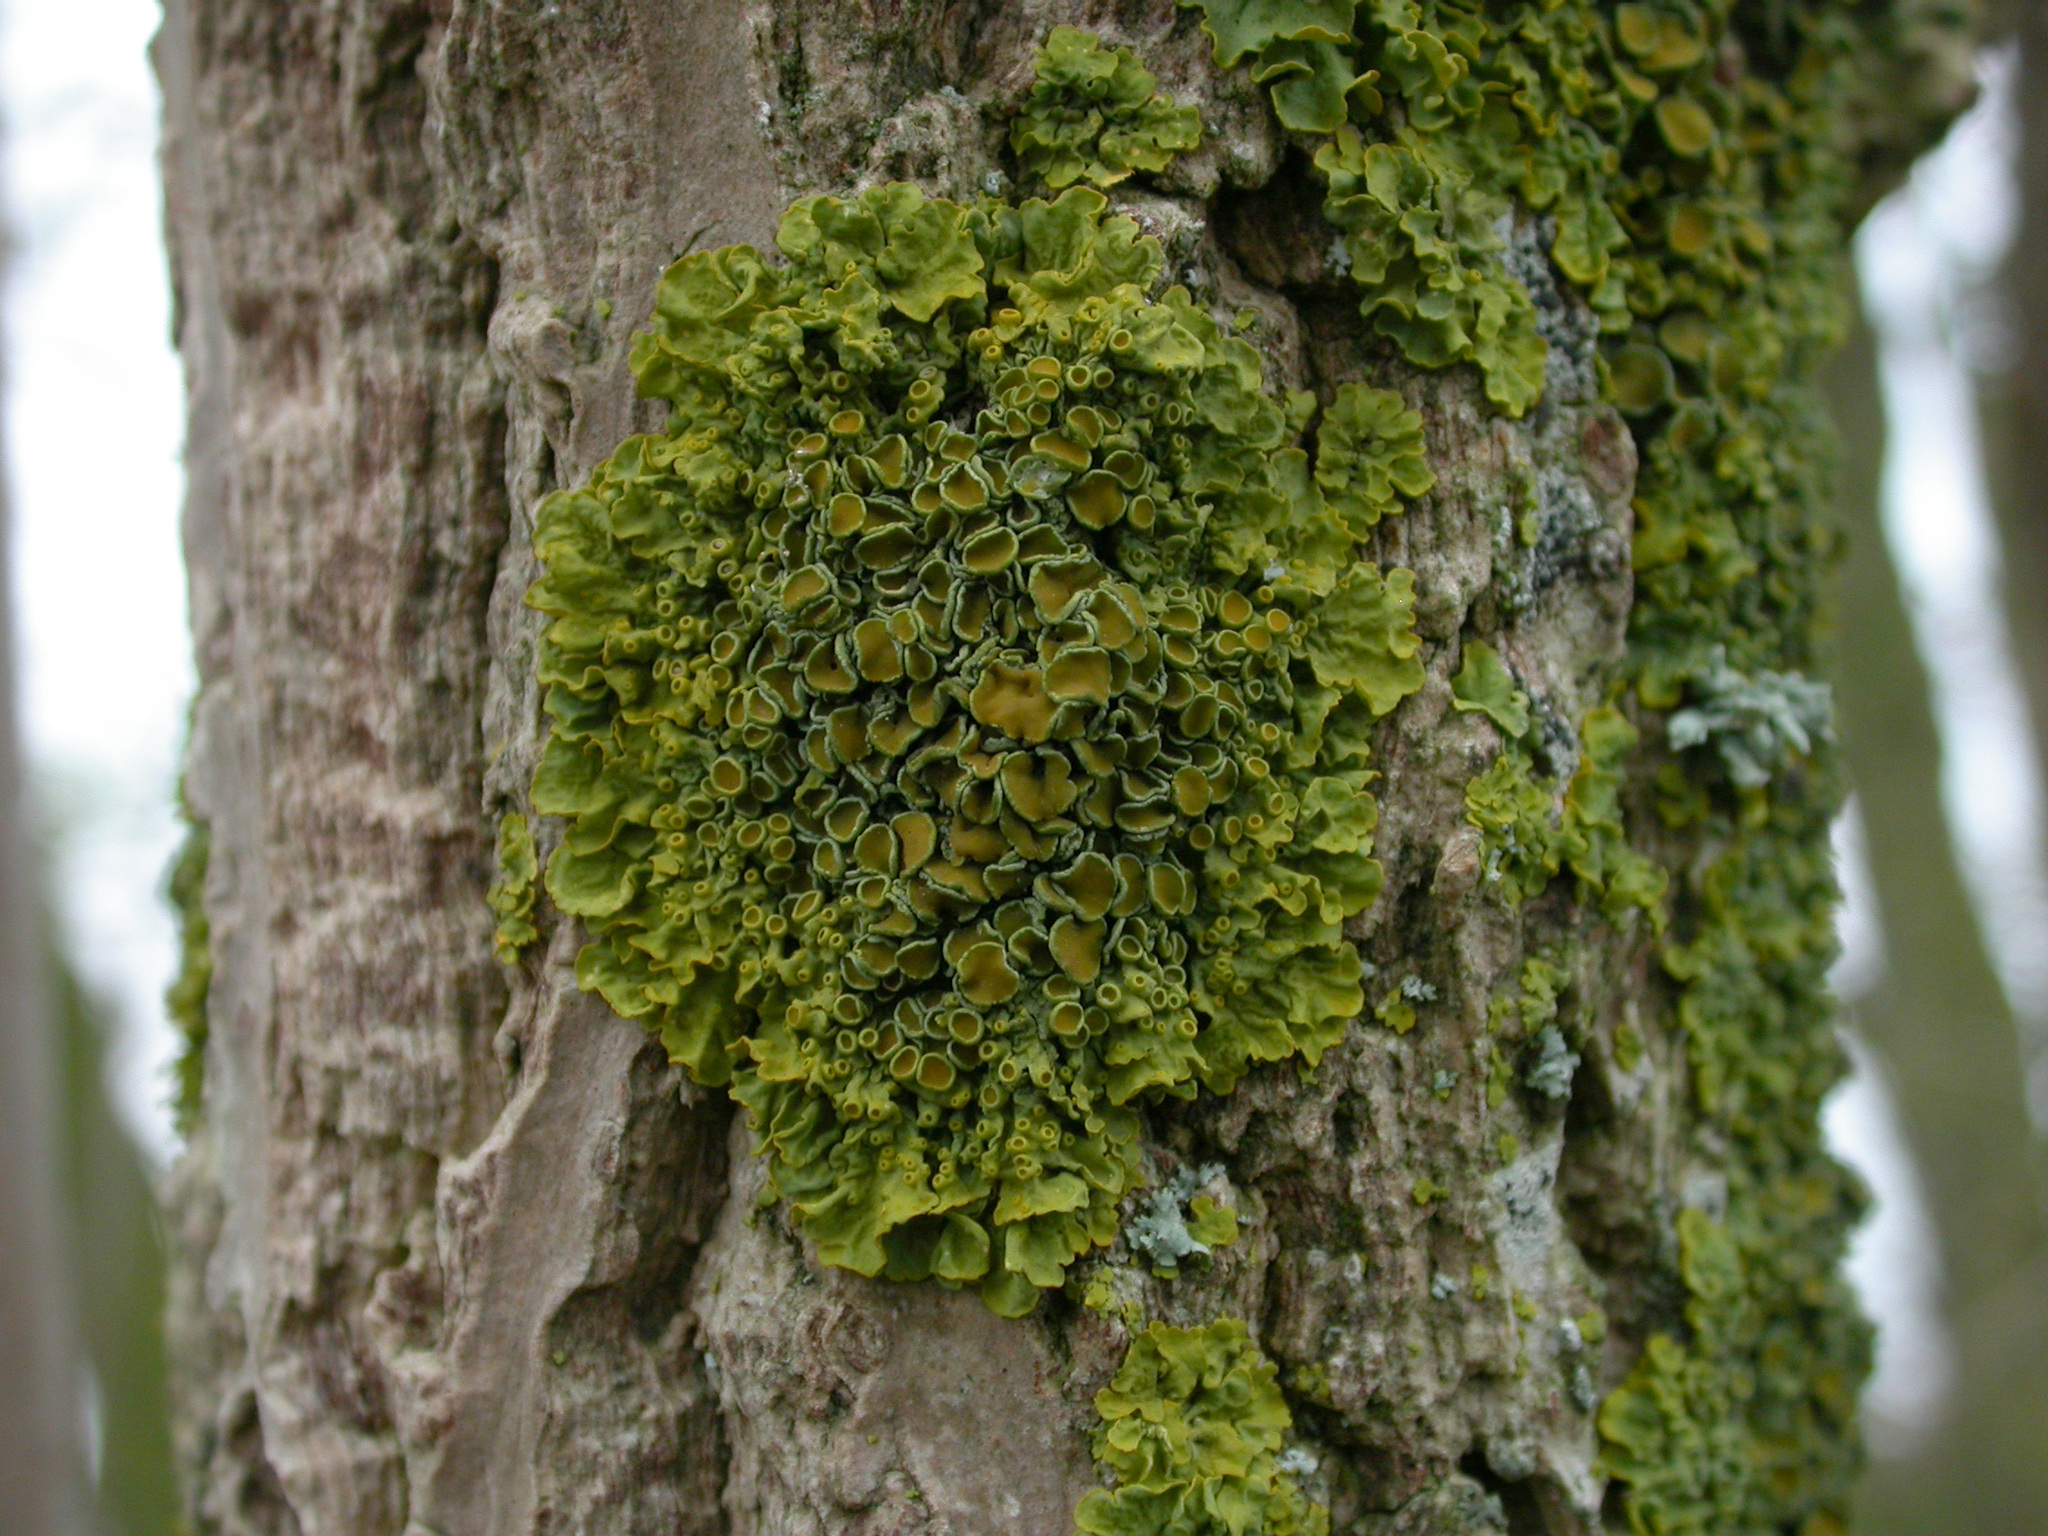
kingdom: Fungi
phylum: Ascomycota
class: Lecanoromycetes
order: Teloschistales
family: Teloschistaceae
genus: Xanthoria
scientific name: Xanthoria parietina
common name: Common orange lichen
